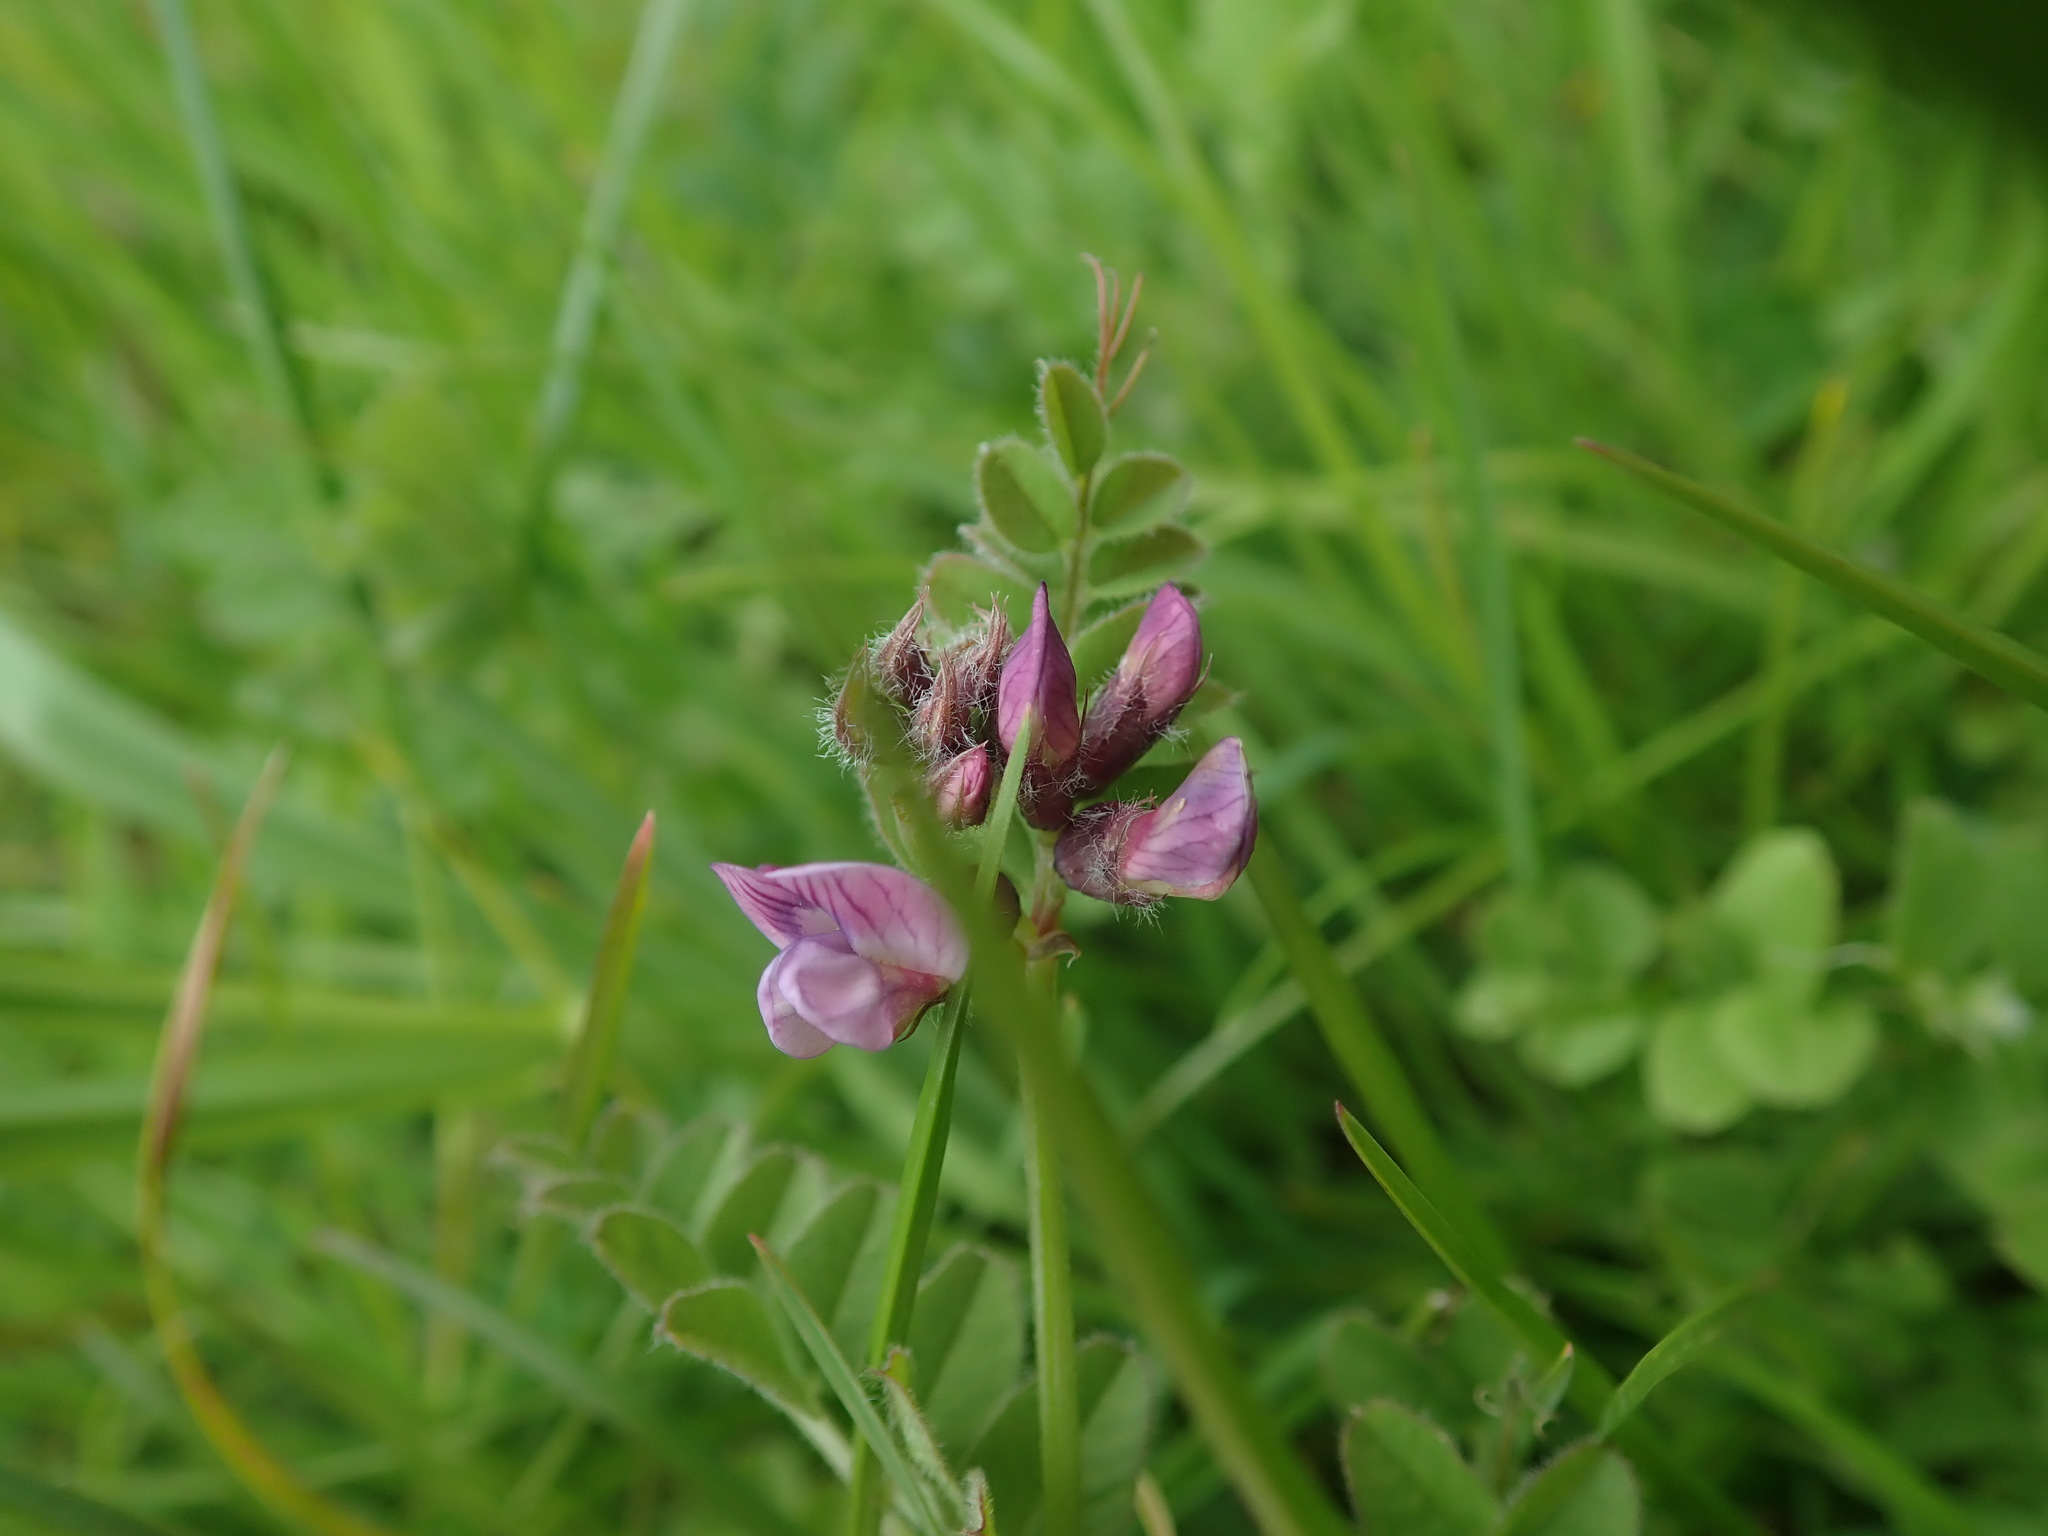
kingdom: Plantae
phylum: Tracheophyta
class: Magnoliopsida
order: Fabales
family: Fabaceae
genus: Vicia
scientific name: Vicia sepium
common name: Bush vetch
